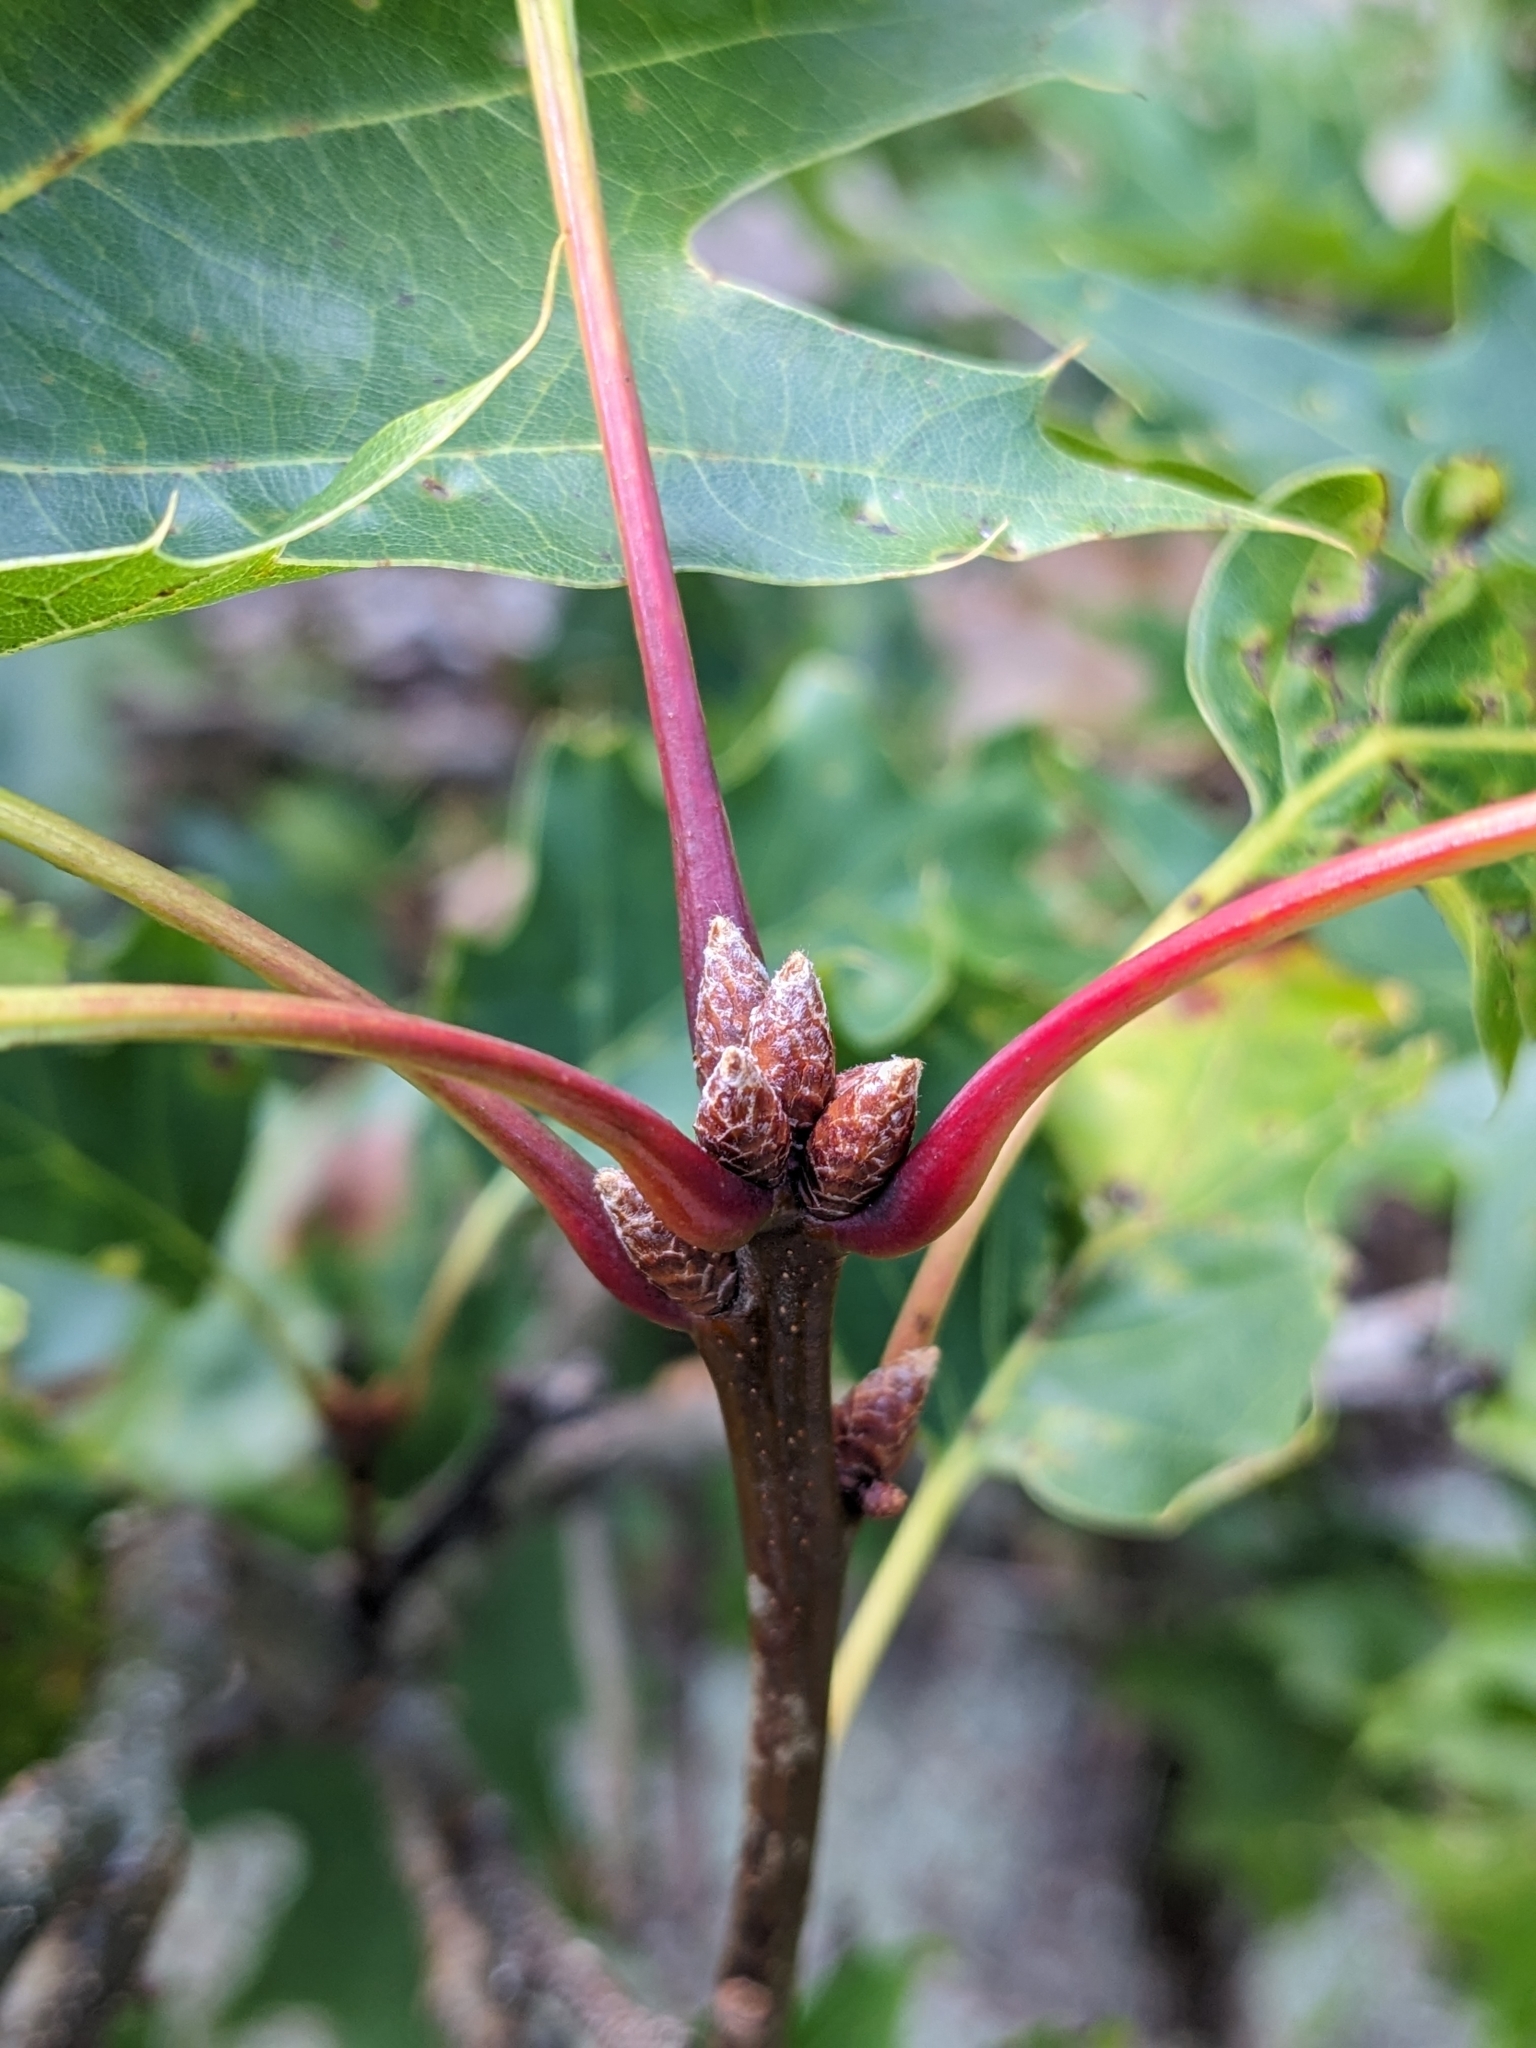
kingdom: Plantae
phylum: Tracheophyta
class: Magnoliopsida
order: Fagales
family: Fagaceae
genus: Quercus
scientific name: Quercus rubra
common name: Red oak
